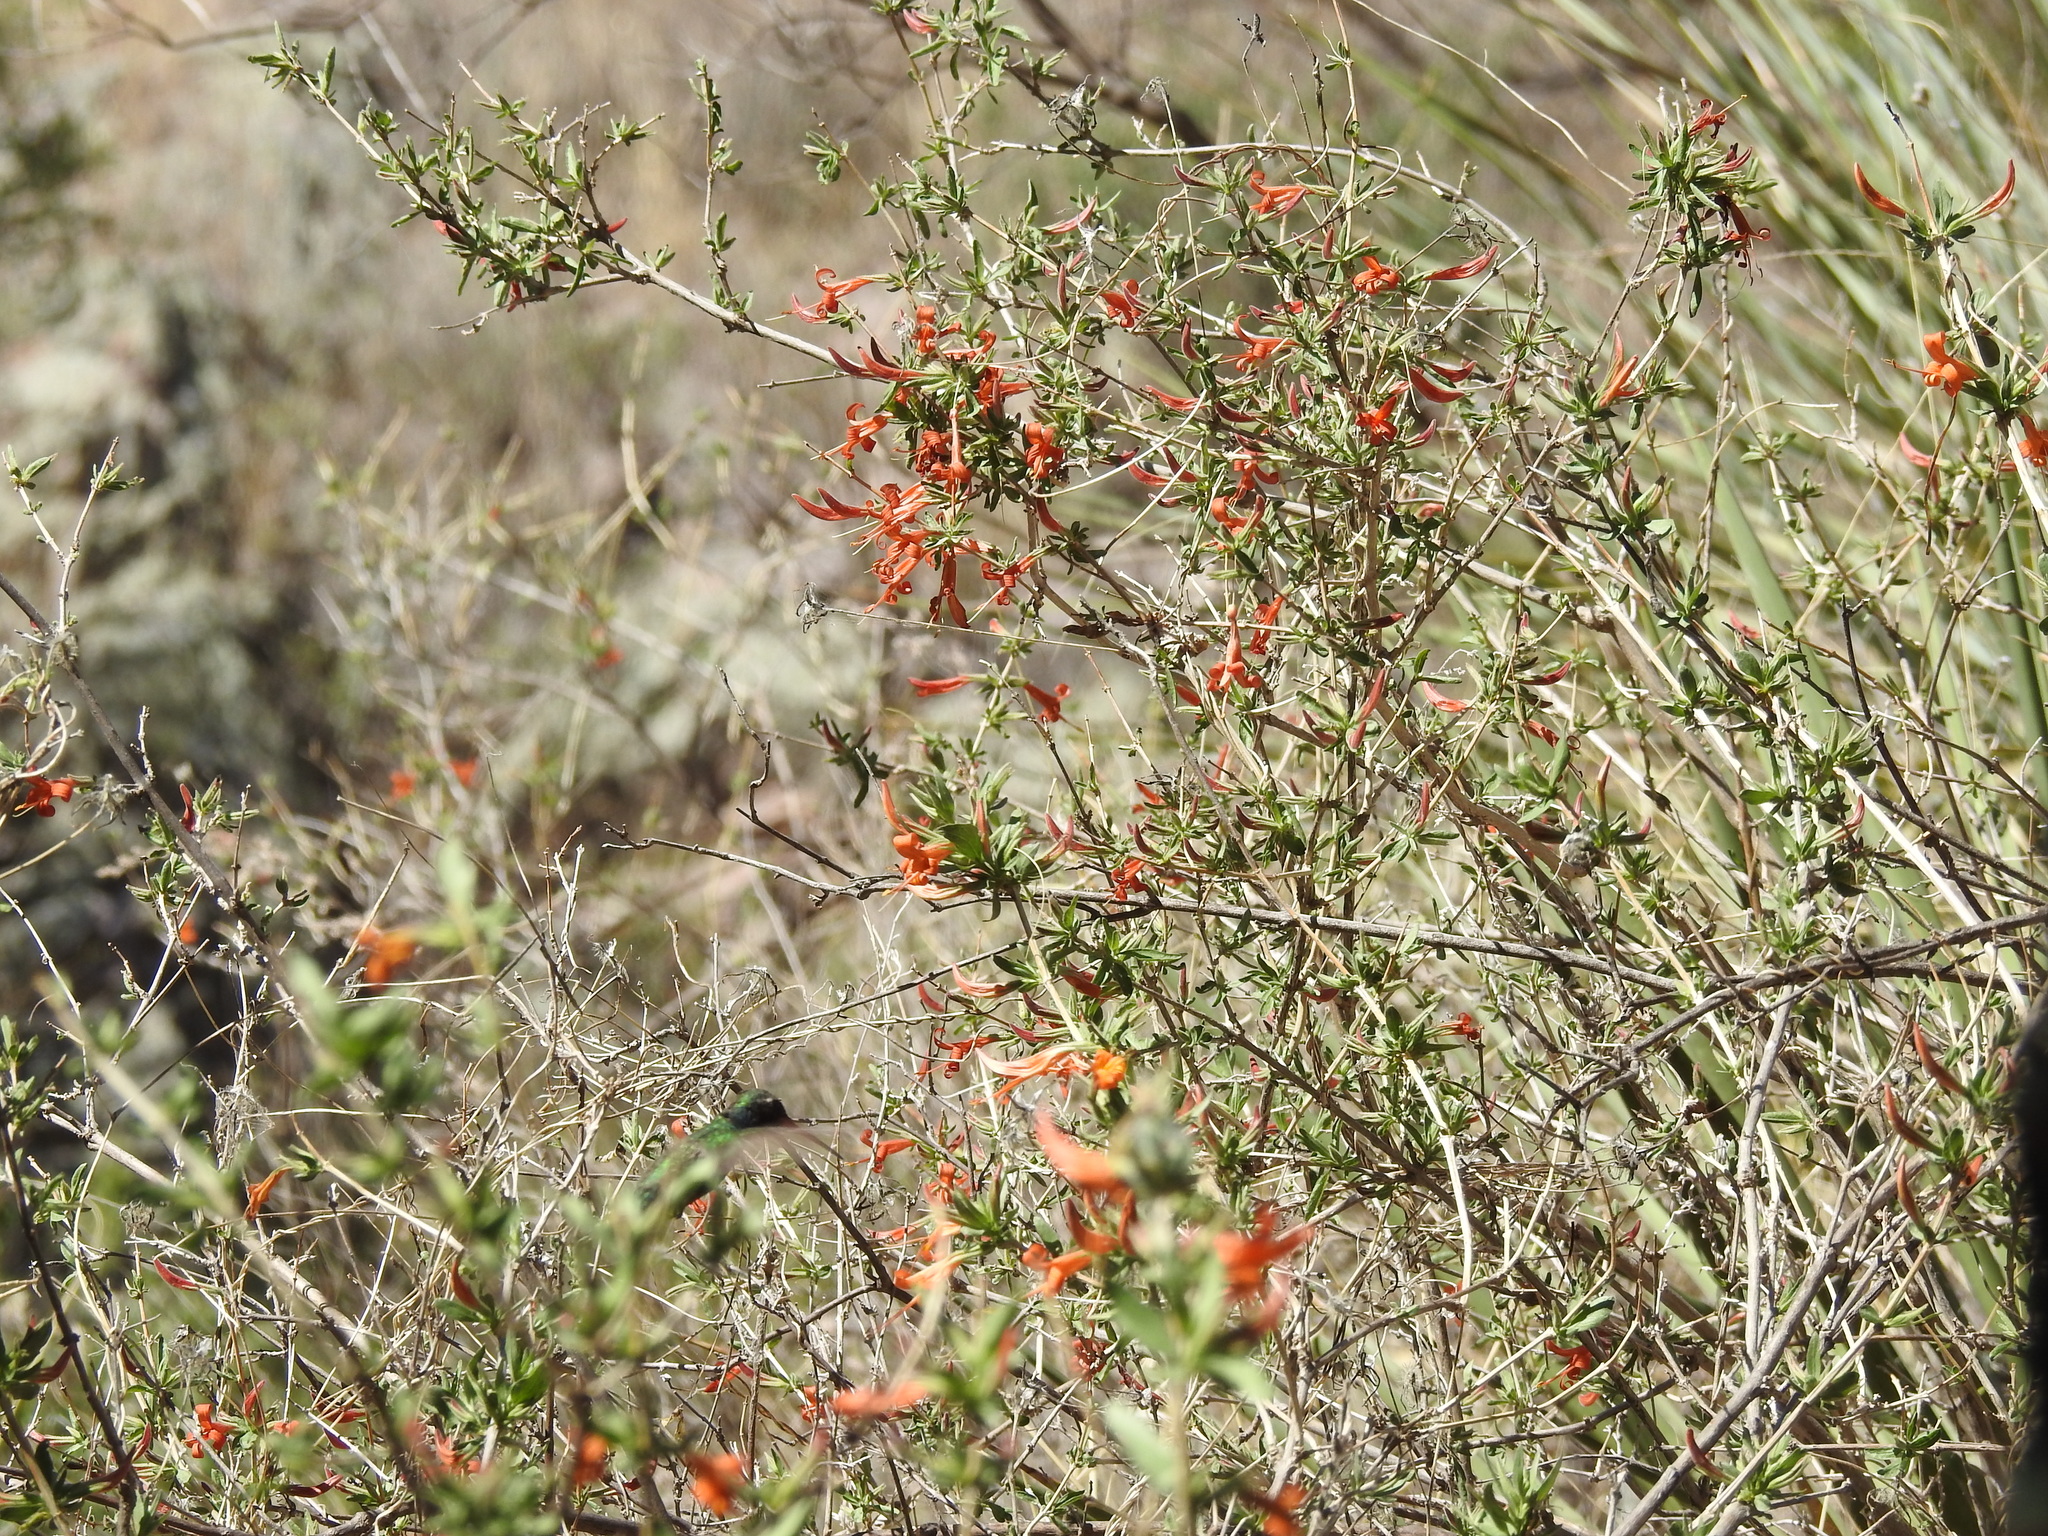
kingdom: Plantae
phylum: Tracheophyta
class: Magnoliopsida
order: Lamiales
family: Acanthaceae
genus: Anisacanthus
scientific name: Anisacanthus thurberi
